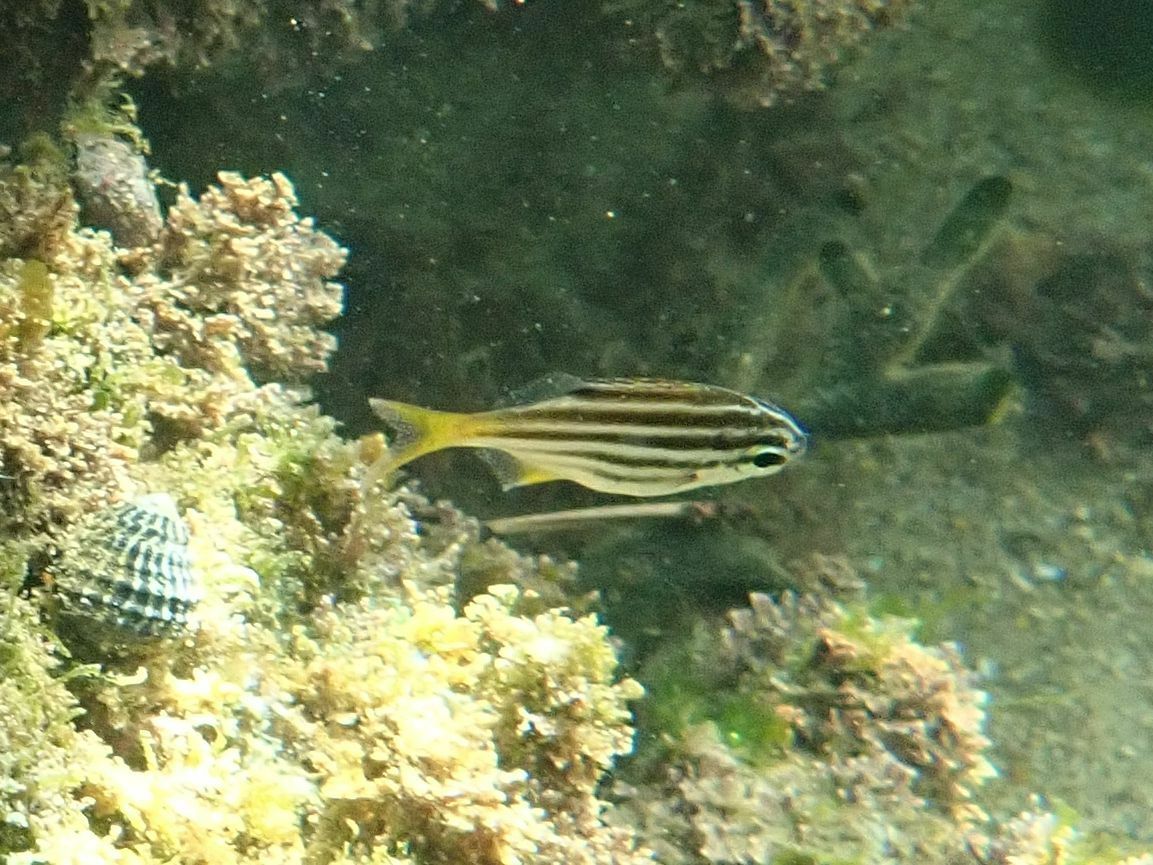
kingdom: Animalia
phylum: Chordata
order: Perciformes
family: Kyphosidae
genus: Atypichthys
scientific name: Atypichthys strigatus
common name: Australian mado
